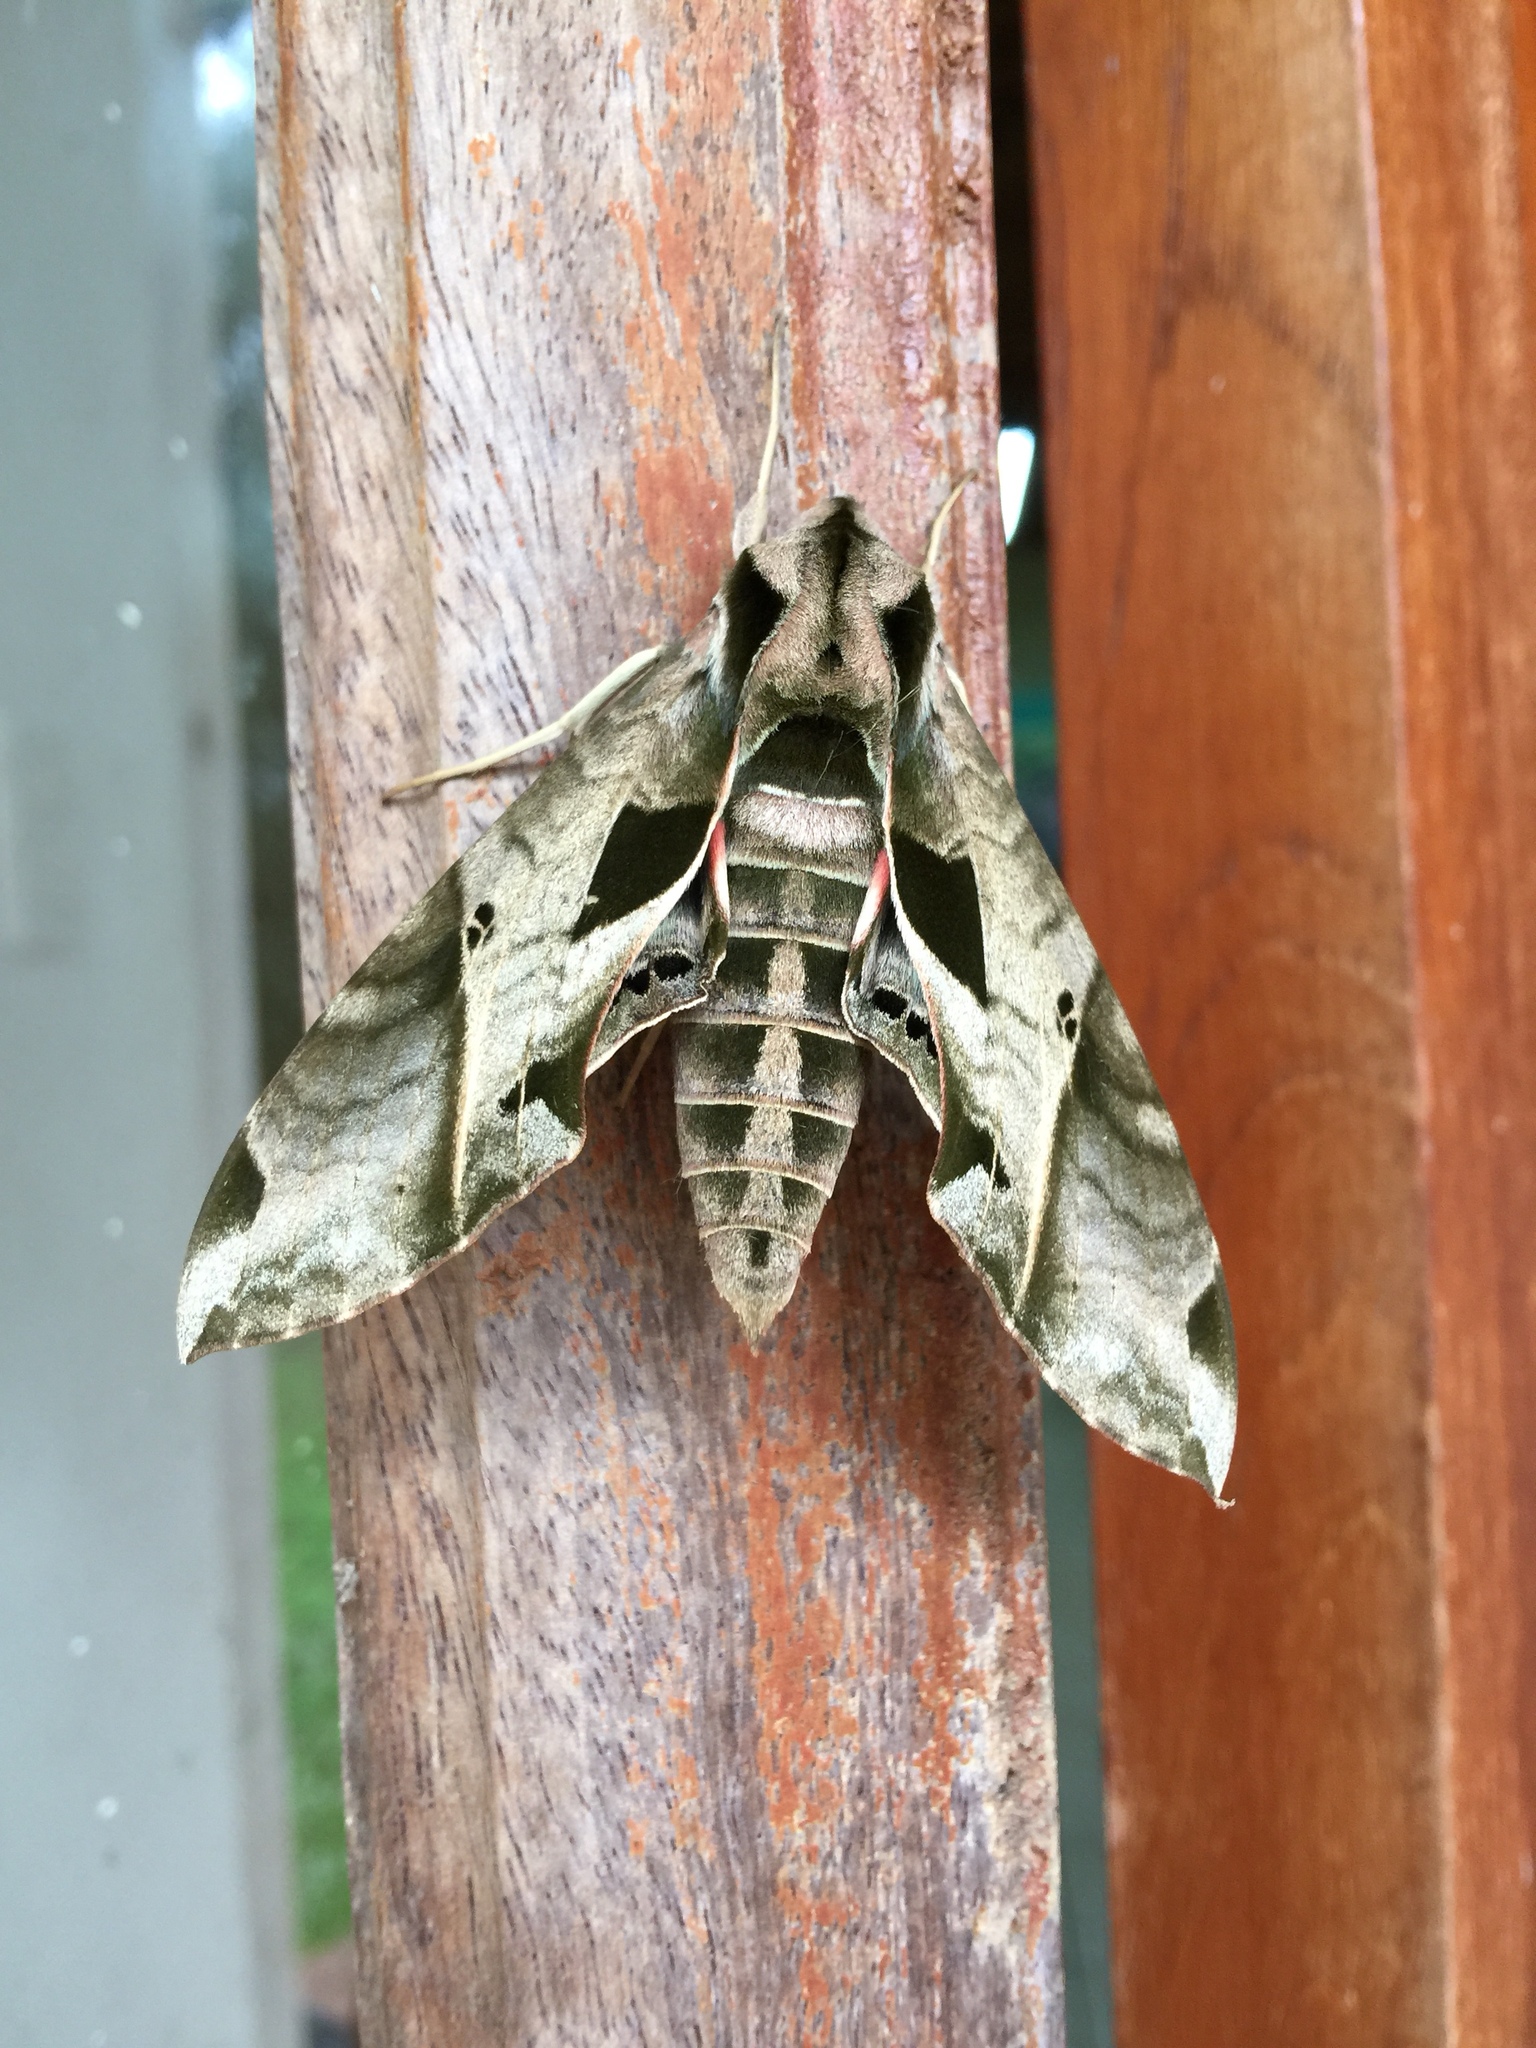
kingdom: Animalia
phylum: Arthropoda
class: Insecta
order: Lepidoptera
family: Sphingidae
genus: Eumorpha
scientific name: Eumorpha analis
